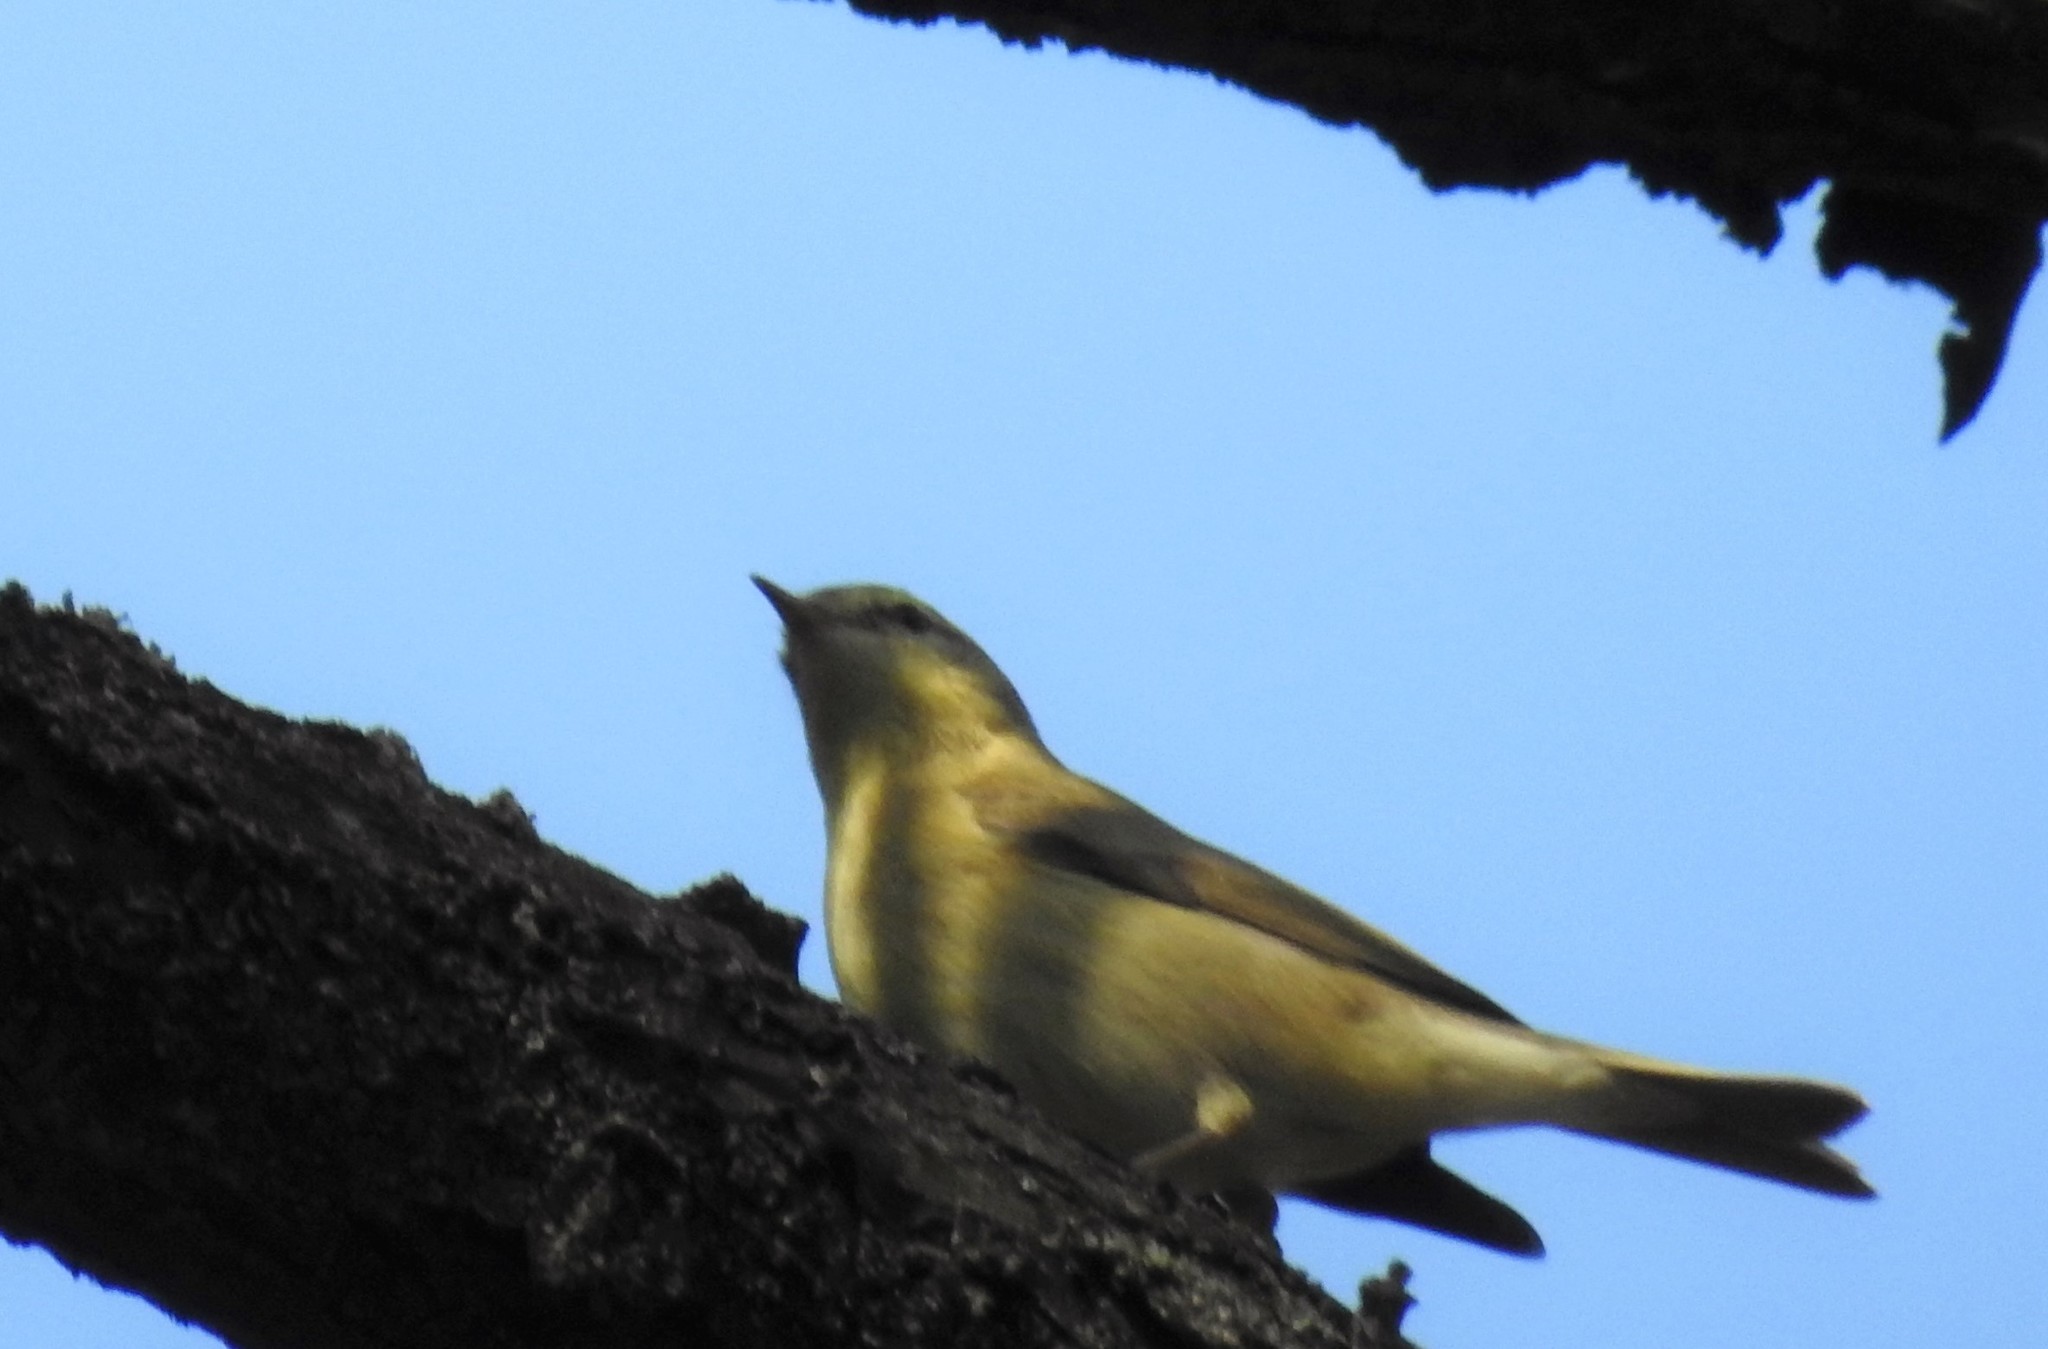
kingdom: Animalia
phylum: Chordata
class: Aves
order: Passeriformes
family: Phylloscopidae
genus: Phylloscopus
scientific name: Phylloscopus trochilus
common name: Willow warbler
